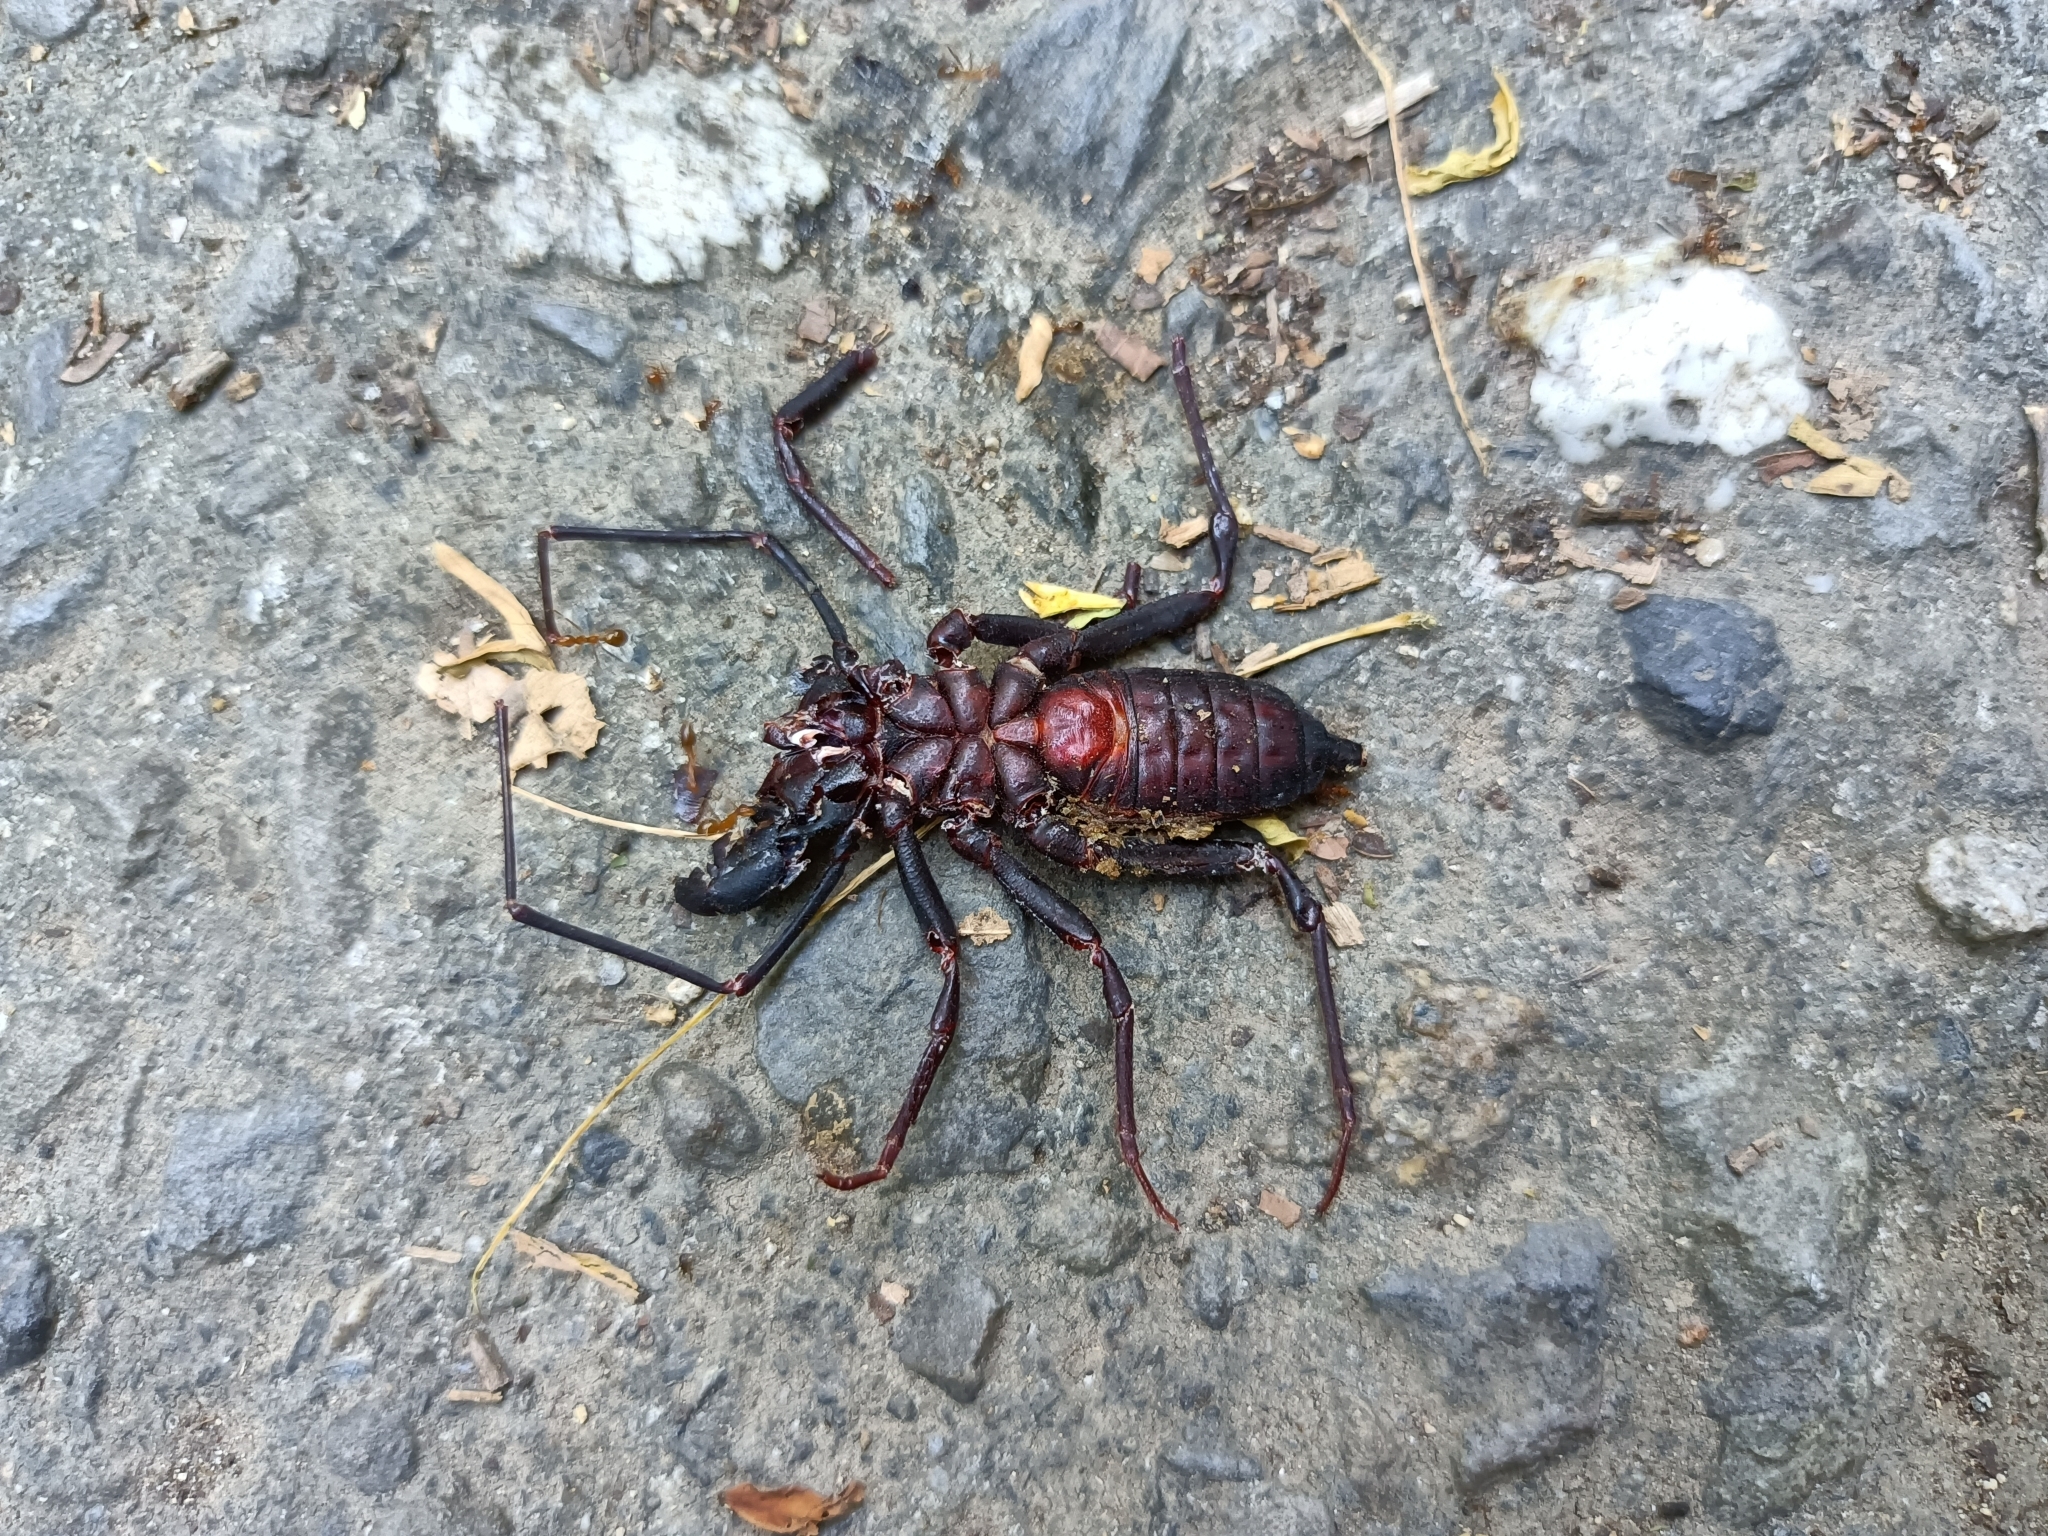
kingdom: Animalia
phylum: Arthropoda
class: Arachnida
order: Uropygi
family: Thelyphonidae
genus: Typopeltis
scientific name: Typopeltis crucifer
